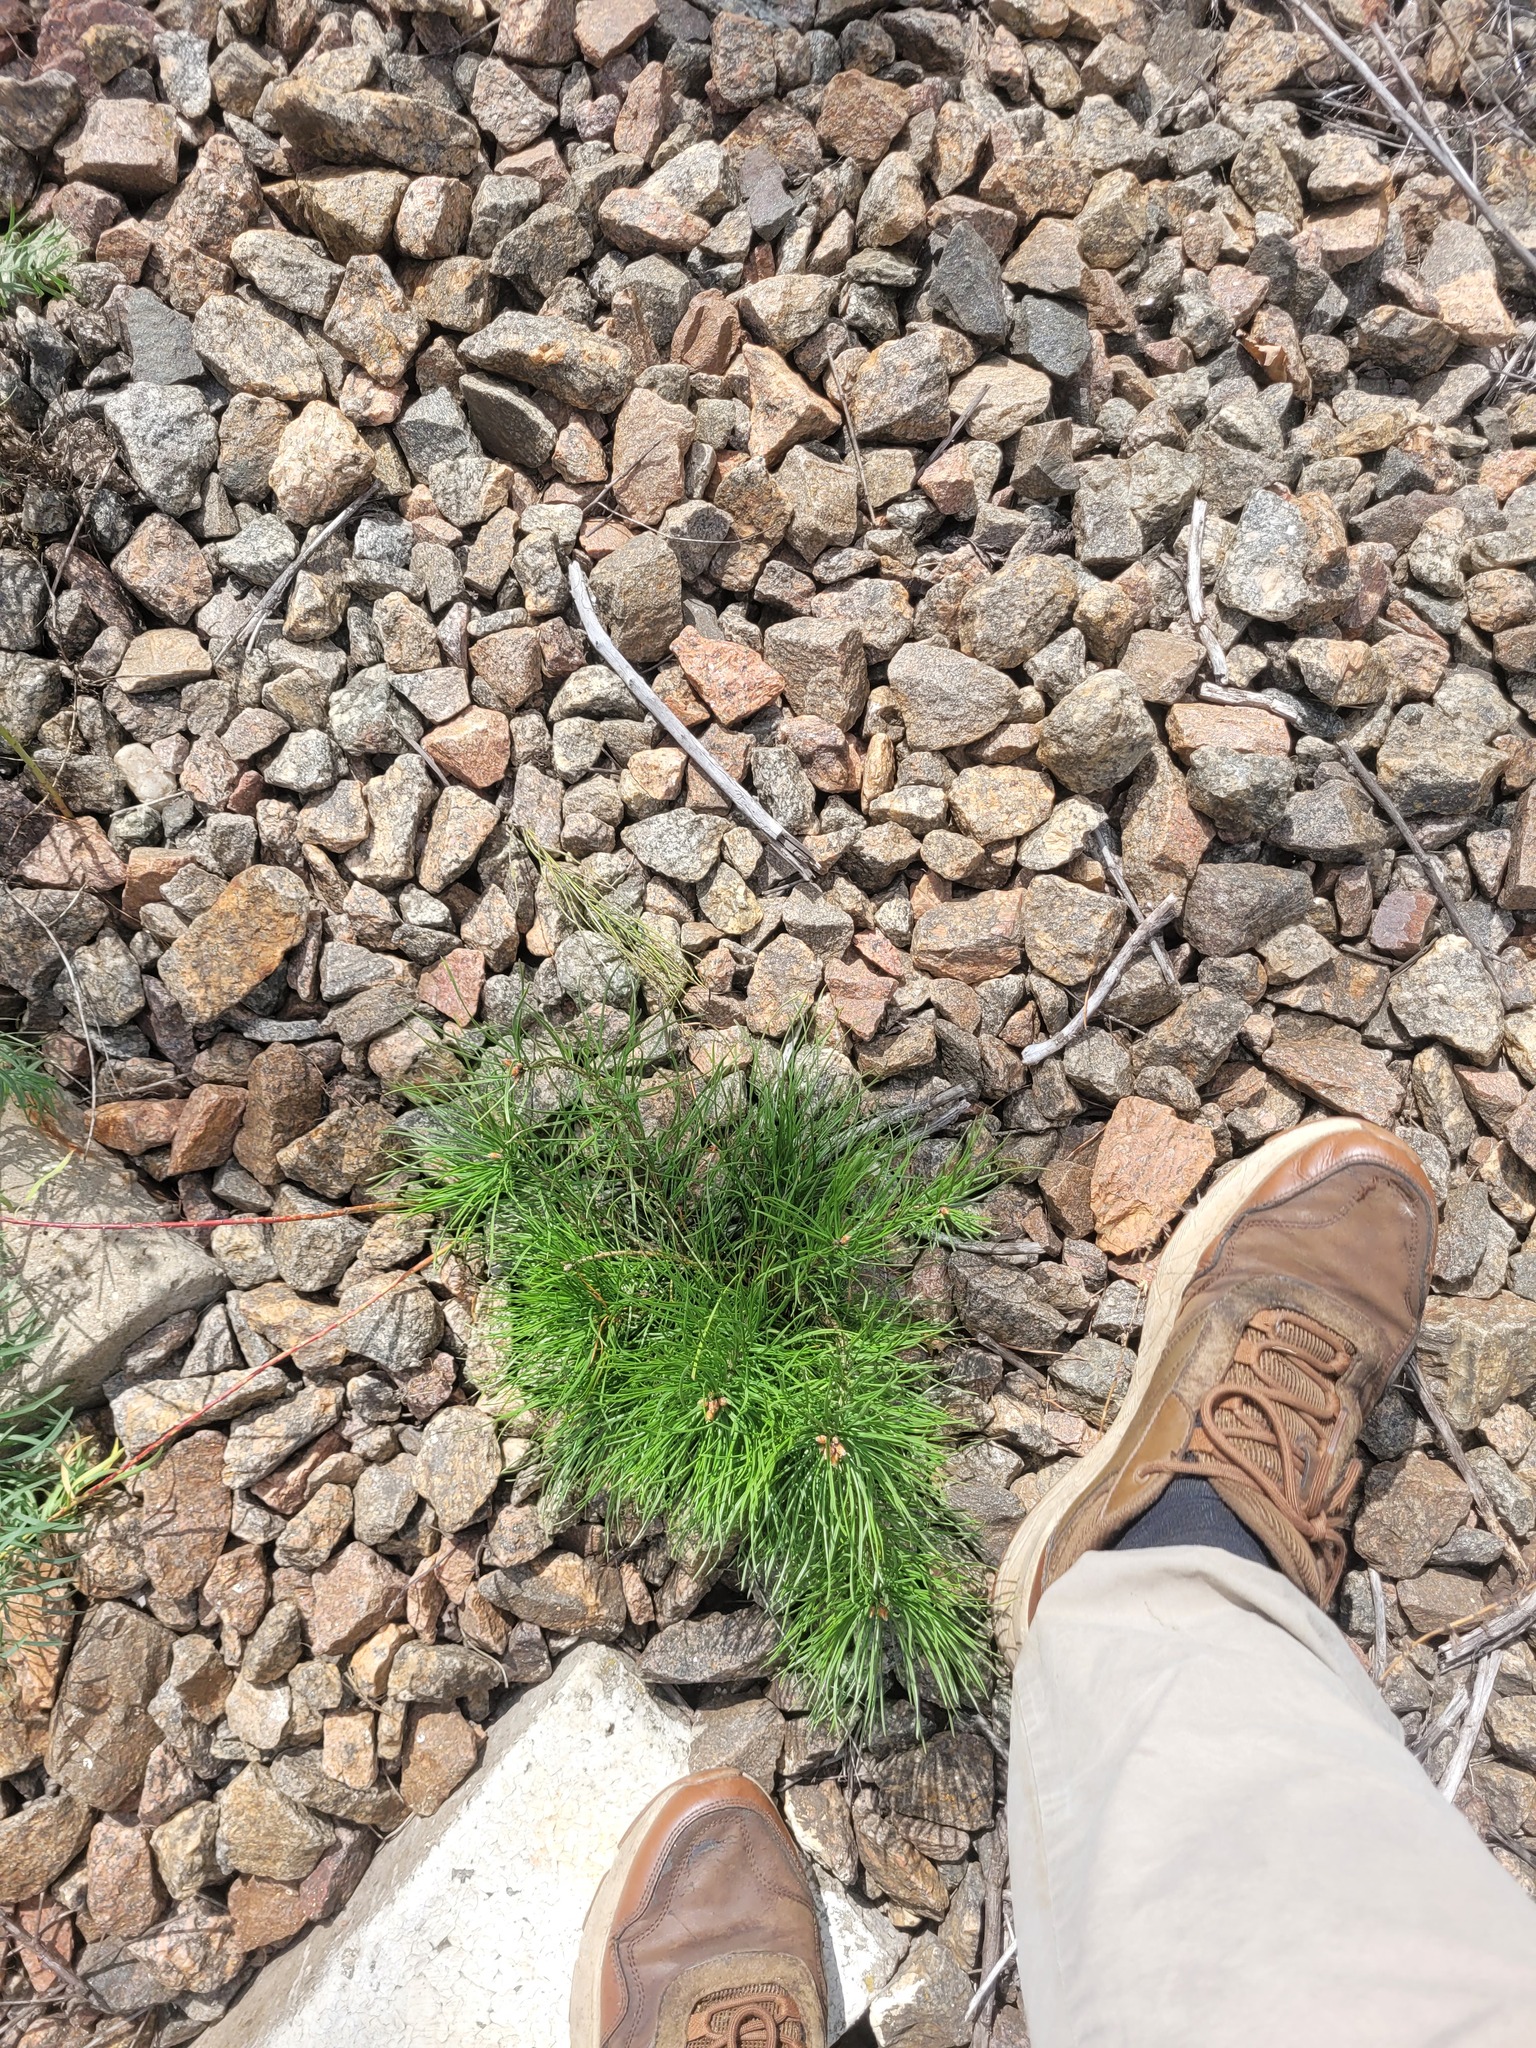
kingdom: Plantae
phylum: Tracheophyta
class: Pinopsida
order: Pinales
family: Pinaceae
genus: Pinus
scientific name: Pinus sylvestris
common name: Scots pine
